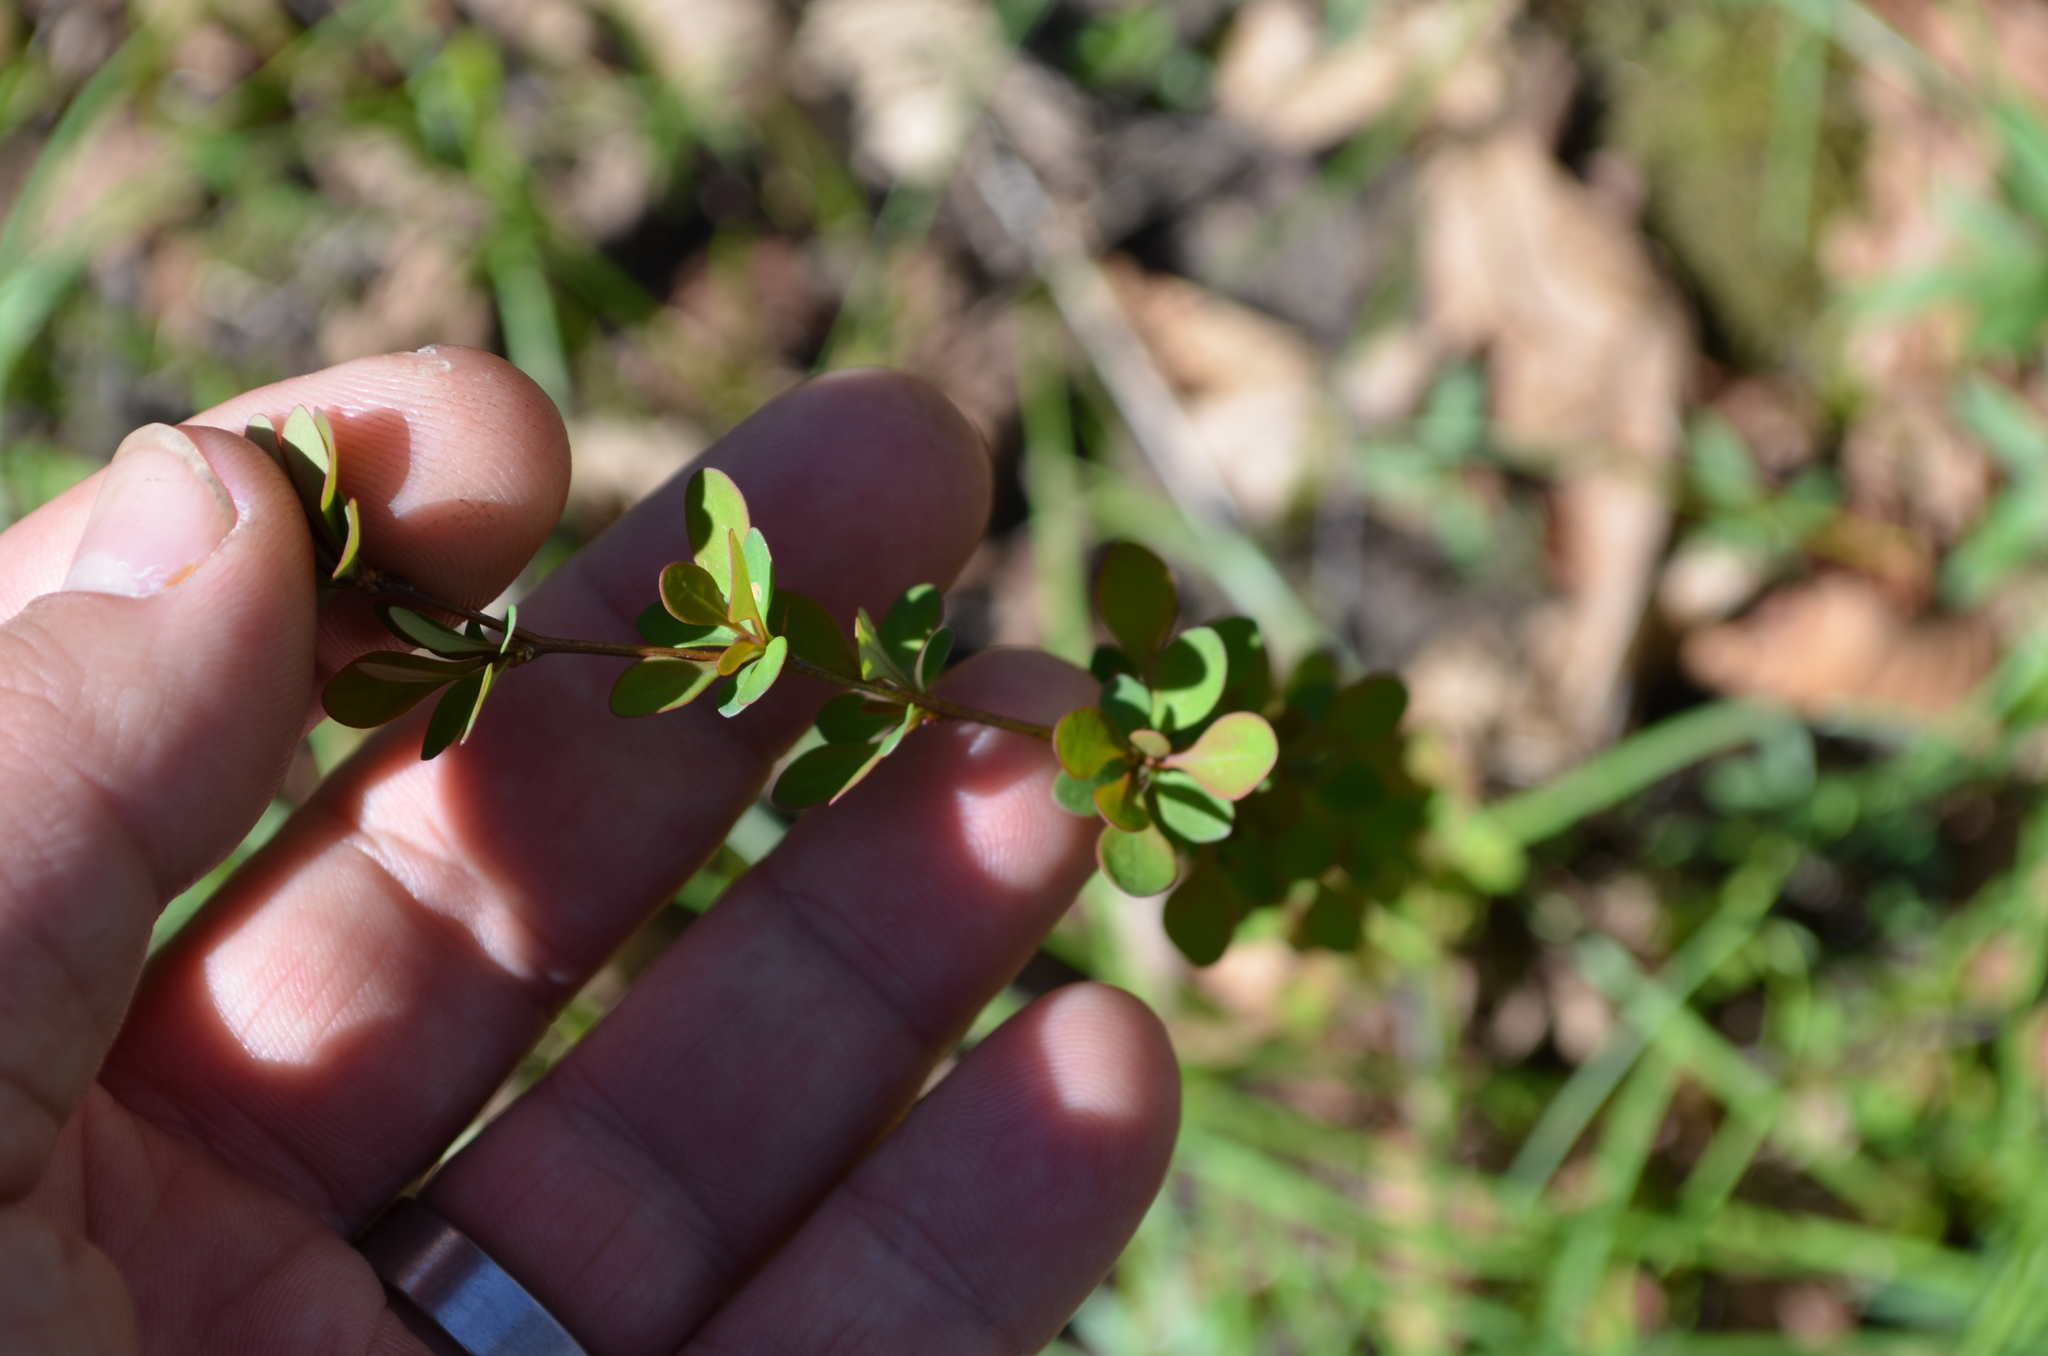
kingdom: Plantae
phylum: Tracheophyta
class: Magnoliopsida
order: Ranunculales
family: Berberidaceae
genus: Berberis
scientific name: Berberis thunbergii
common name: Japanese barberry
